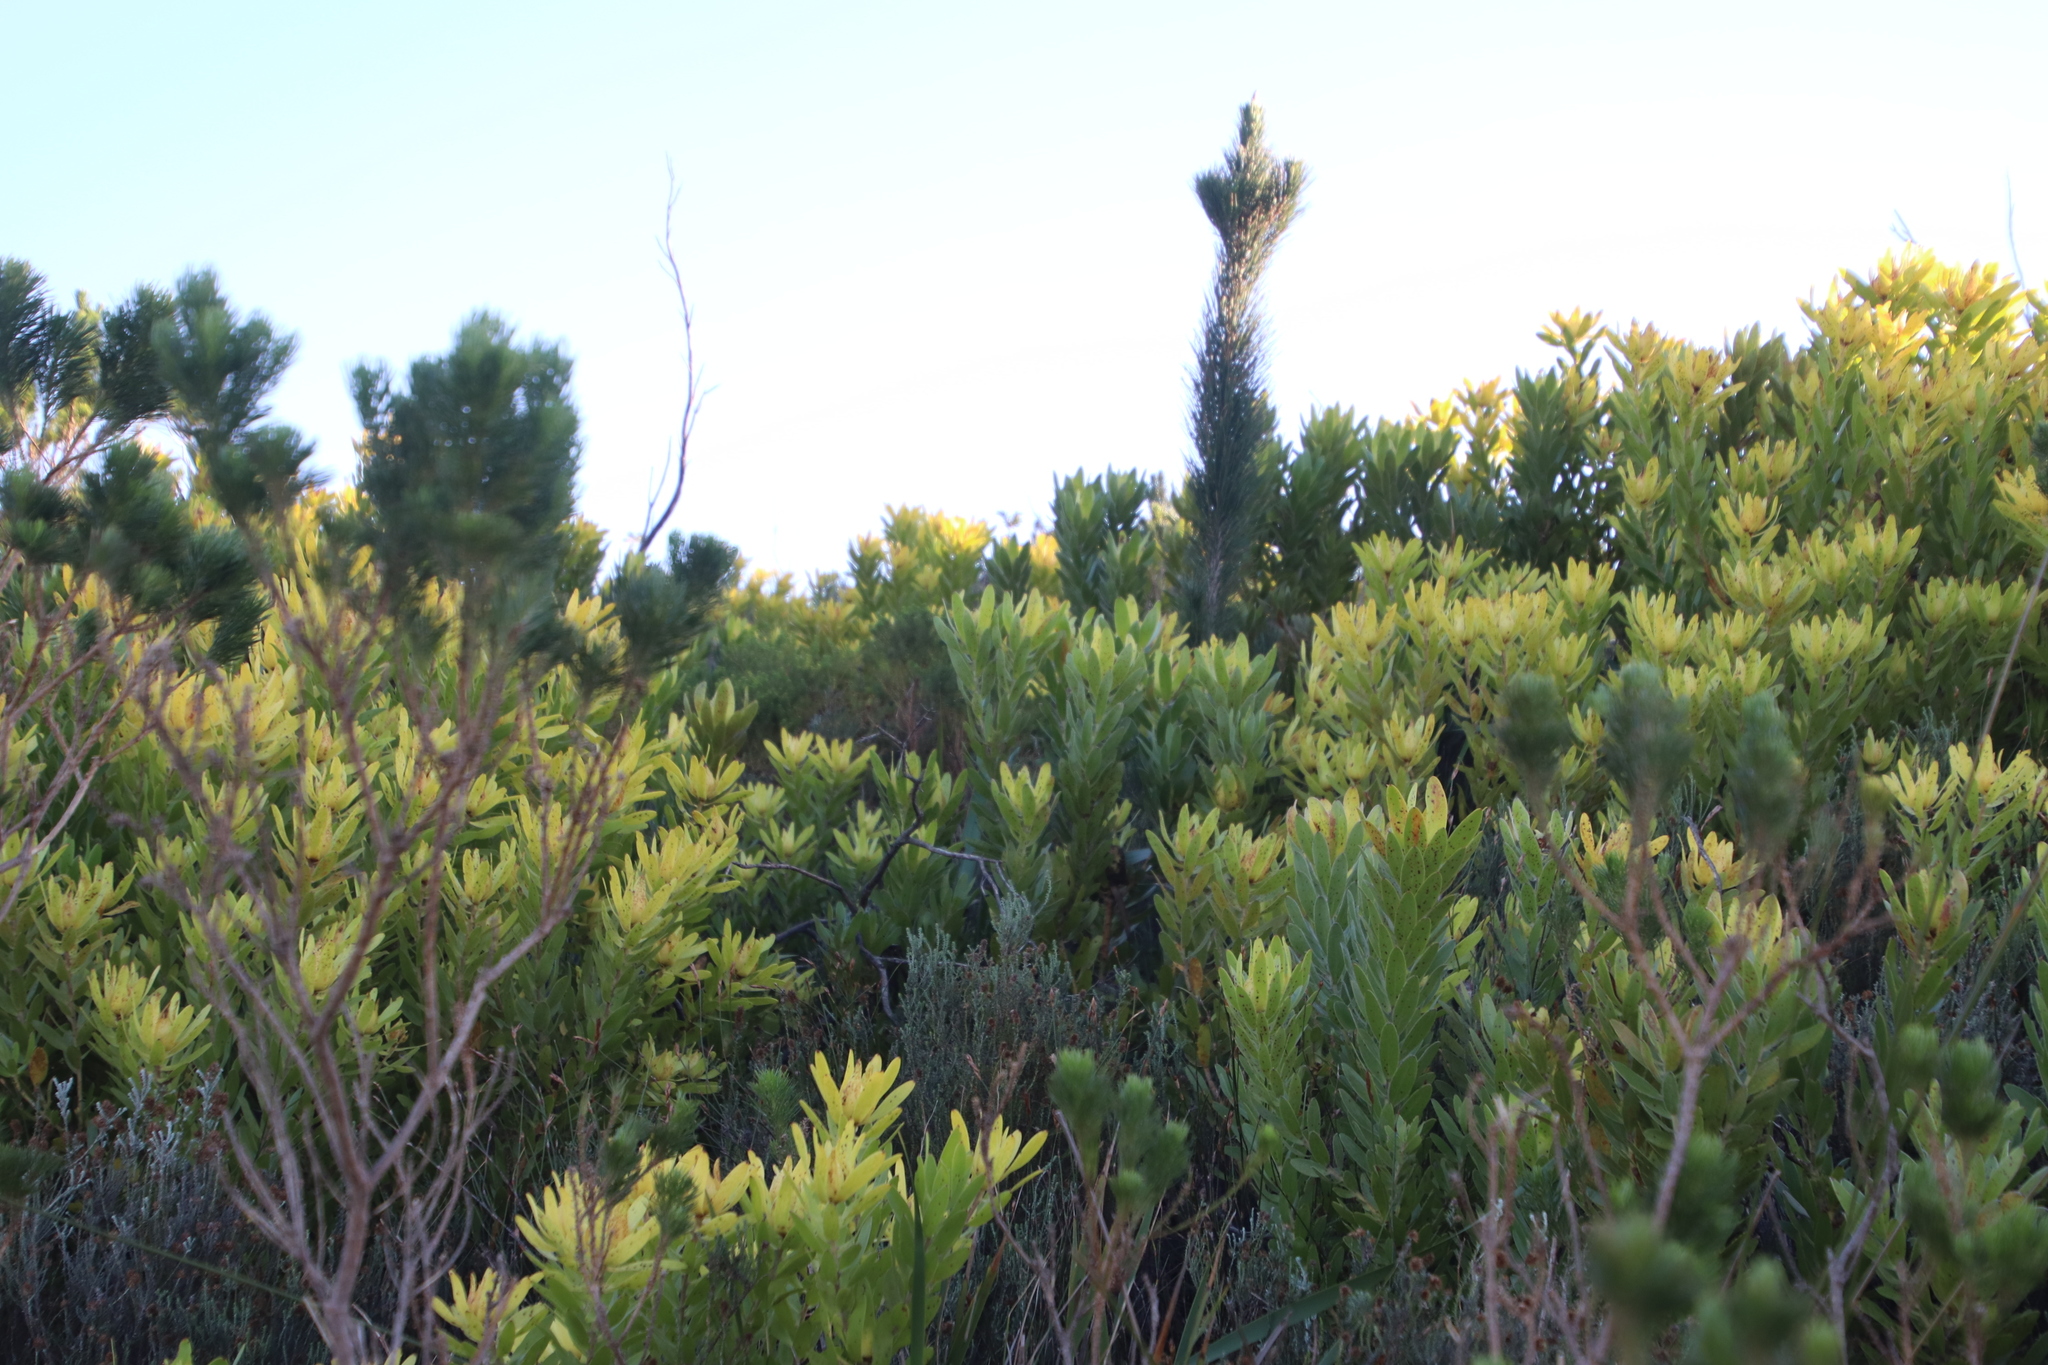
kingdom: Plantae
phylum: Tracheophyta
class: Pinopsida
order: Pinales
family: Pinaceae
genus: Pinus
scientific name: Pinus radiata
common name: Monterey pine
